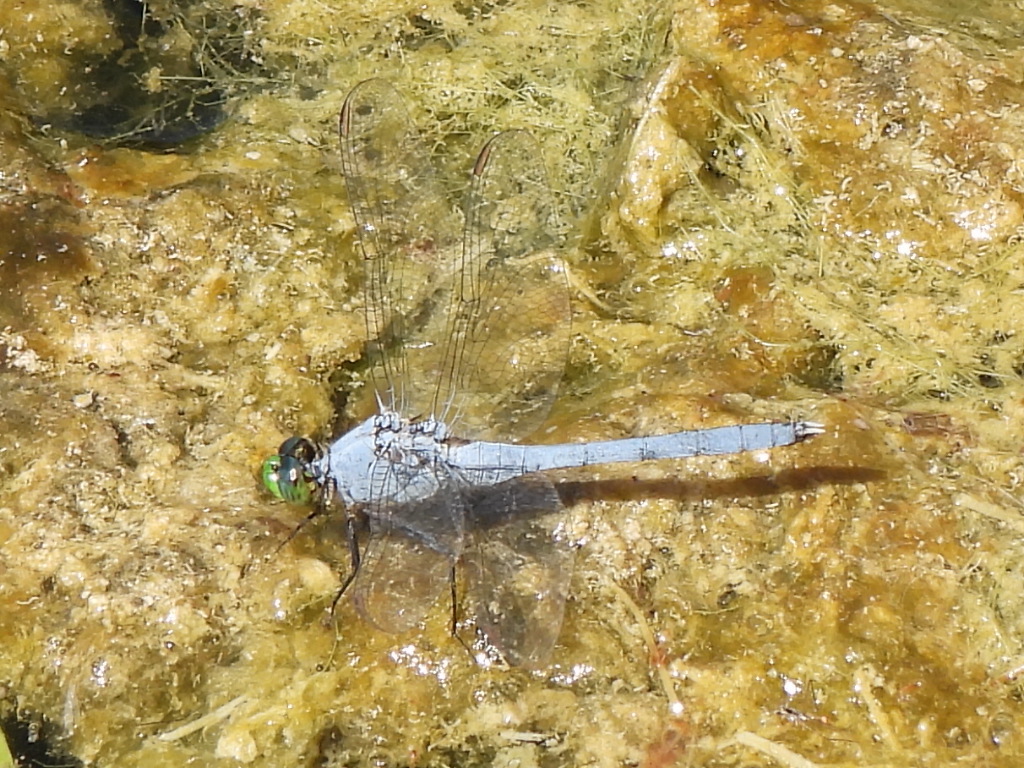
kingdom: Animalia
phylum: Arthropoda
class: Insecta
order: Odonata
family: Libellulidae
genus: Erythemis
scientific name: Erythemis simplicicollis
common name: Eastern pondhawk
